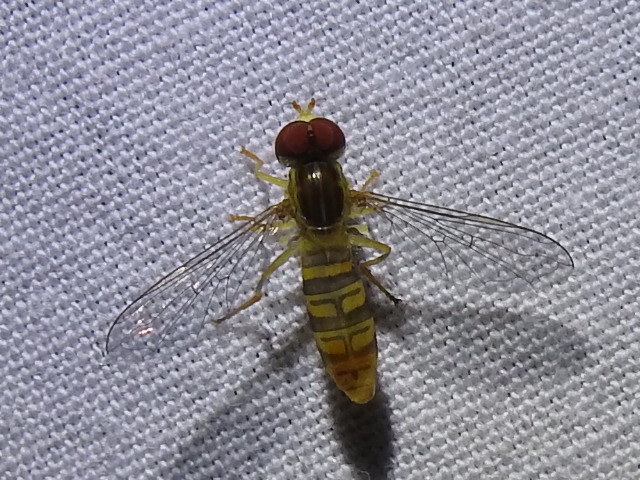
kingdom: Animalia
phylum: Arthropoda
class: Insecta
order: Diptera
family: Syrphidae
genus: Toxomerus
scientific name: Toxomerus politus
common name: Maize calligrapher
